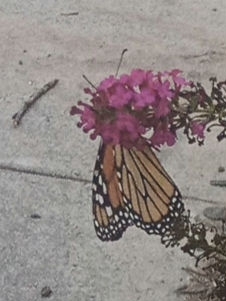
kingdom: Animalia
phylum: Arthropoda
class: Insecta
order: Lepidoptera
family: Nymphalidae
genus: Danaus
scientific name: Danaus plexippus
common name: Monarch
